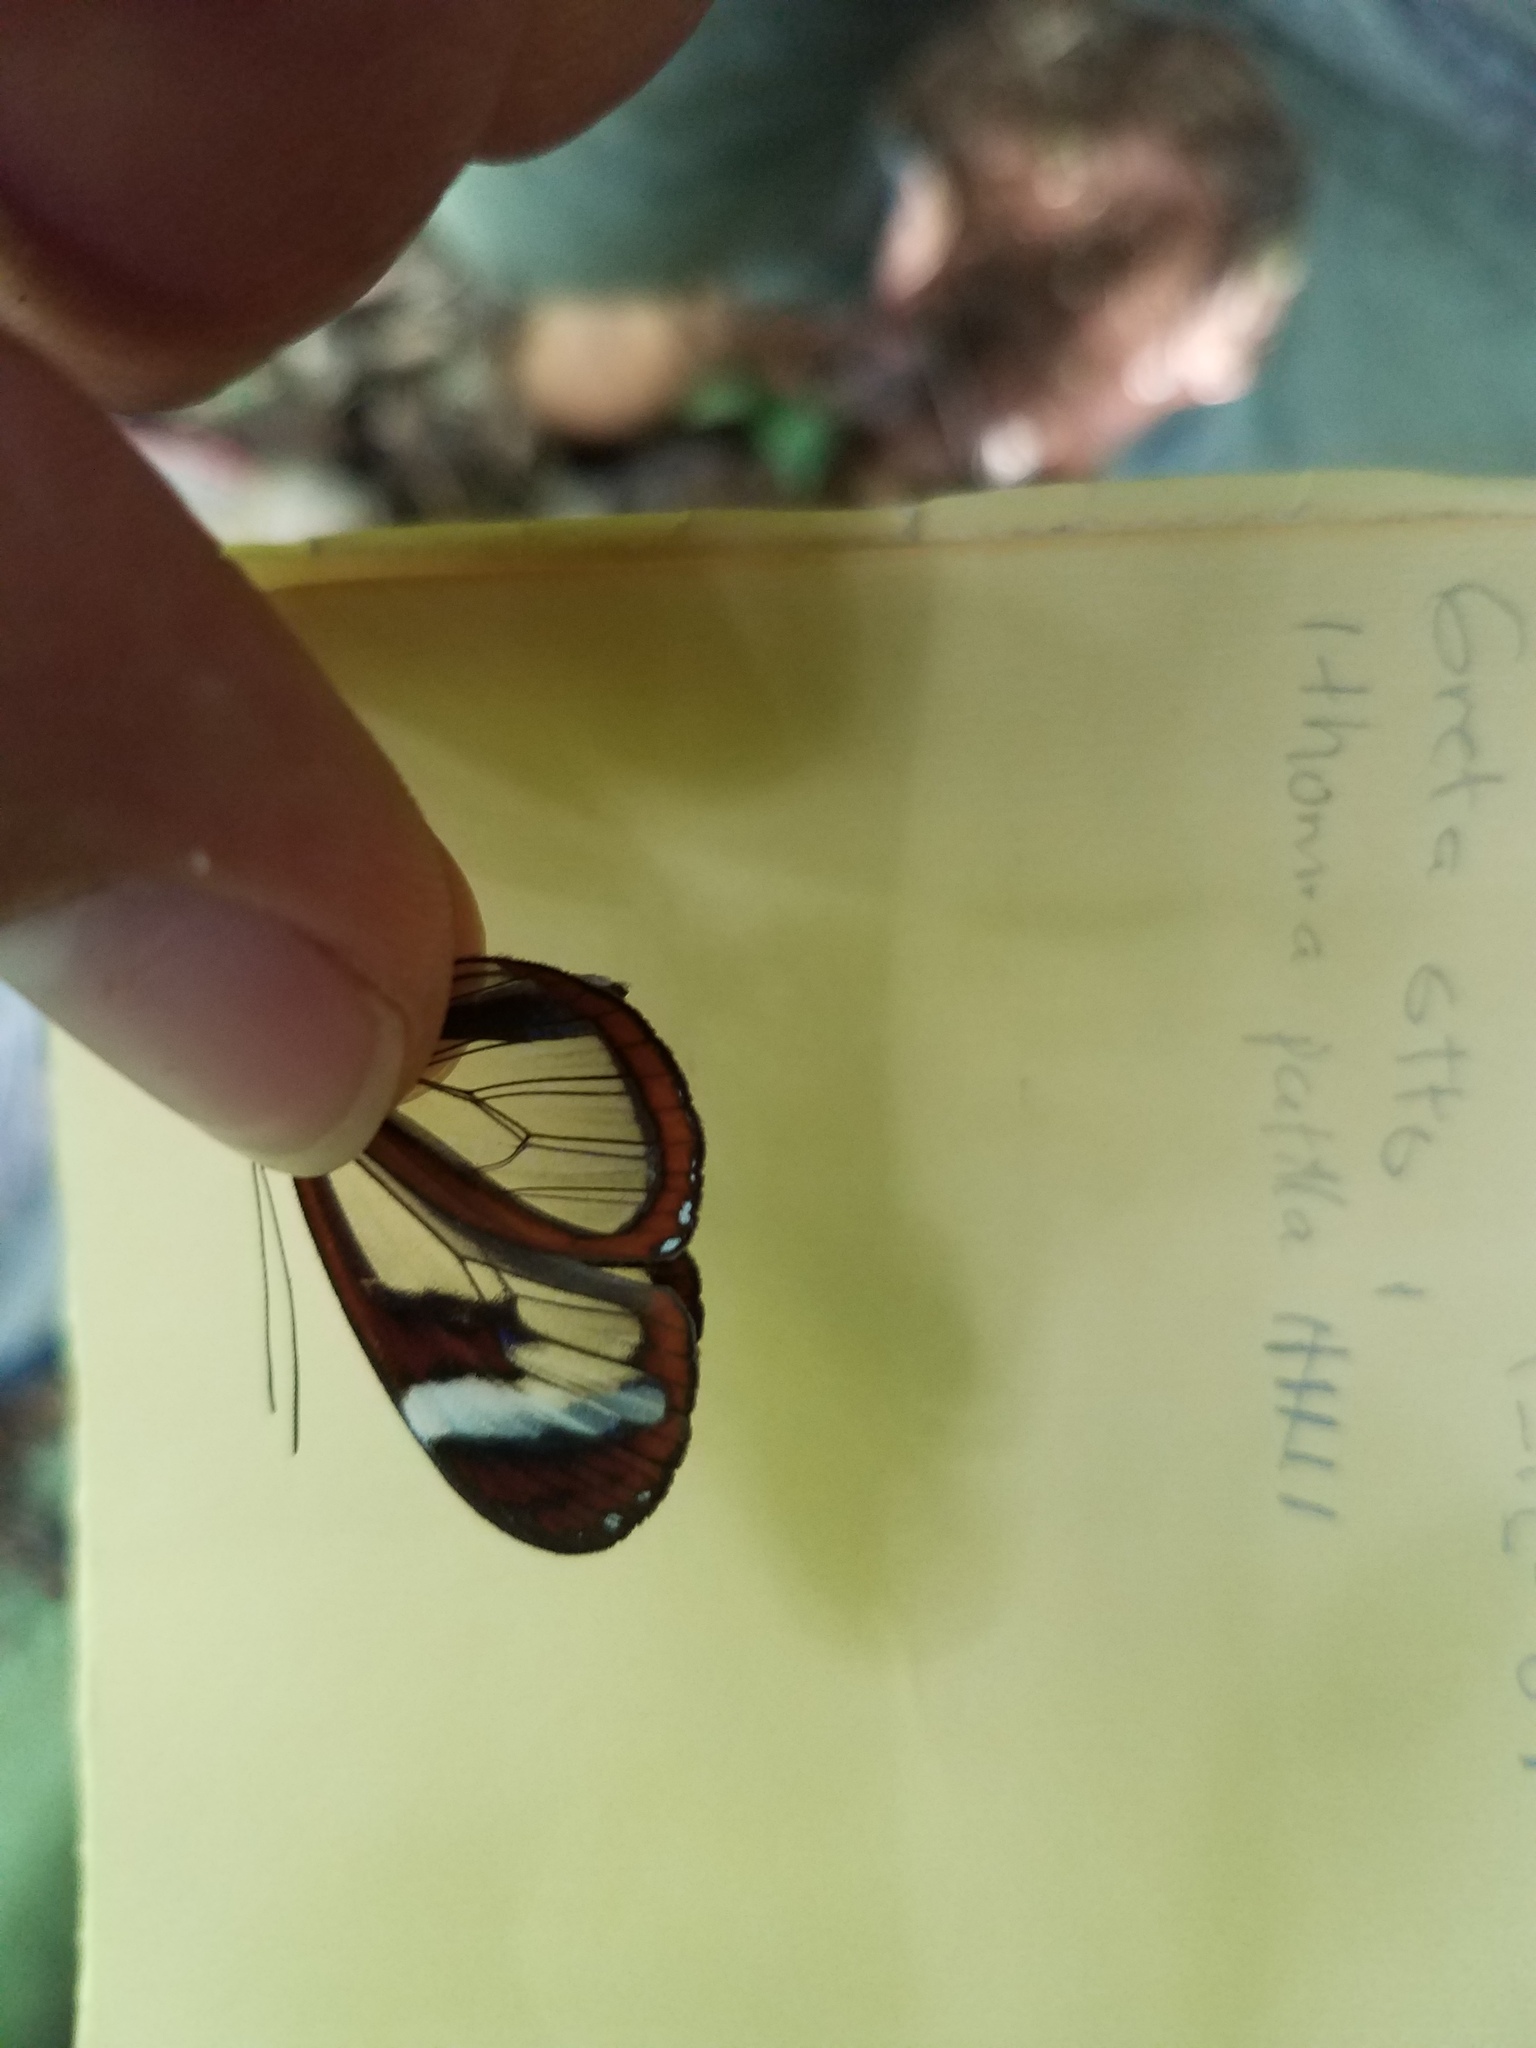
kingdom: Animalia
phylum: Arthropoda
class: Insecta
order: Lepidoptera
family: Nymphalidae
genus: Oleria
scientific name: Oleria paula
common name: Paula's clearwing
